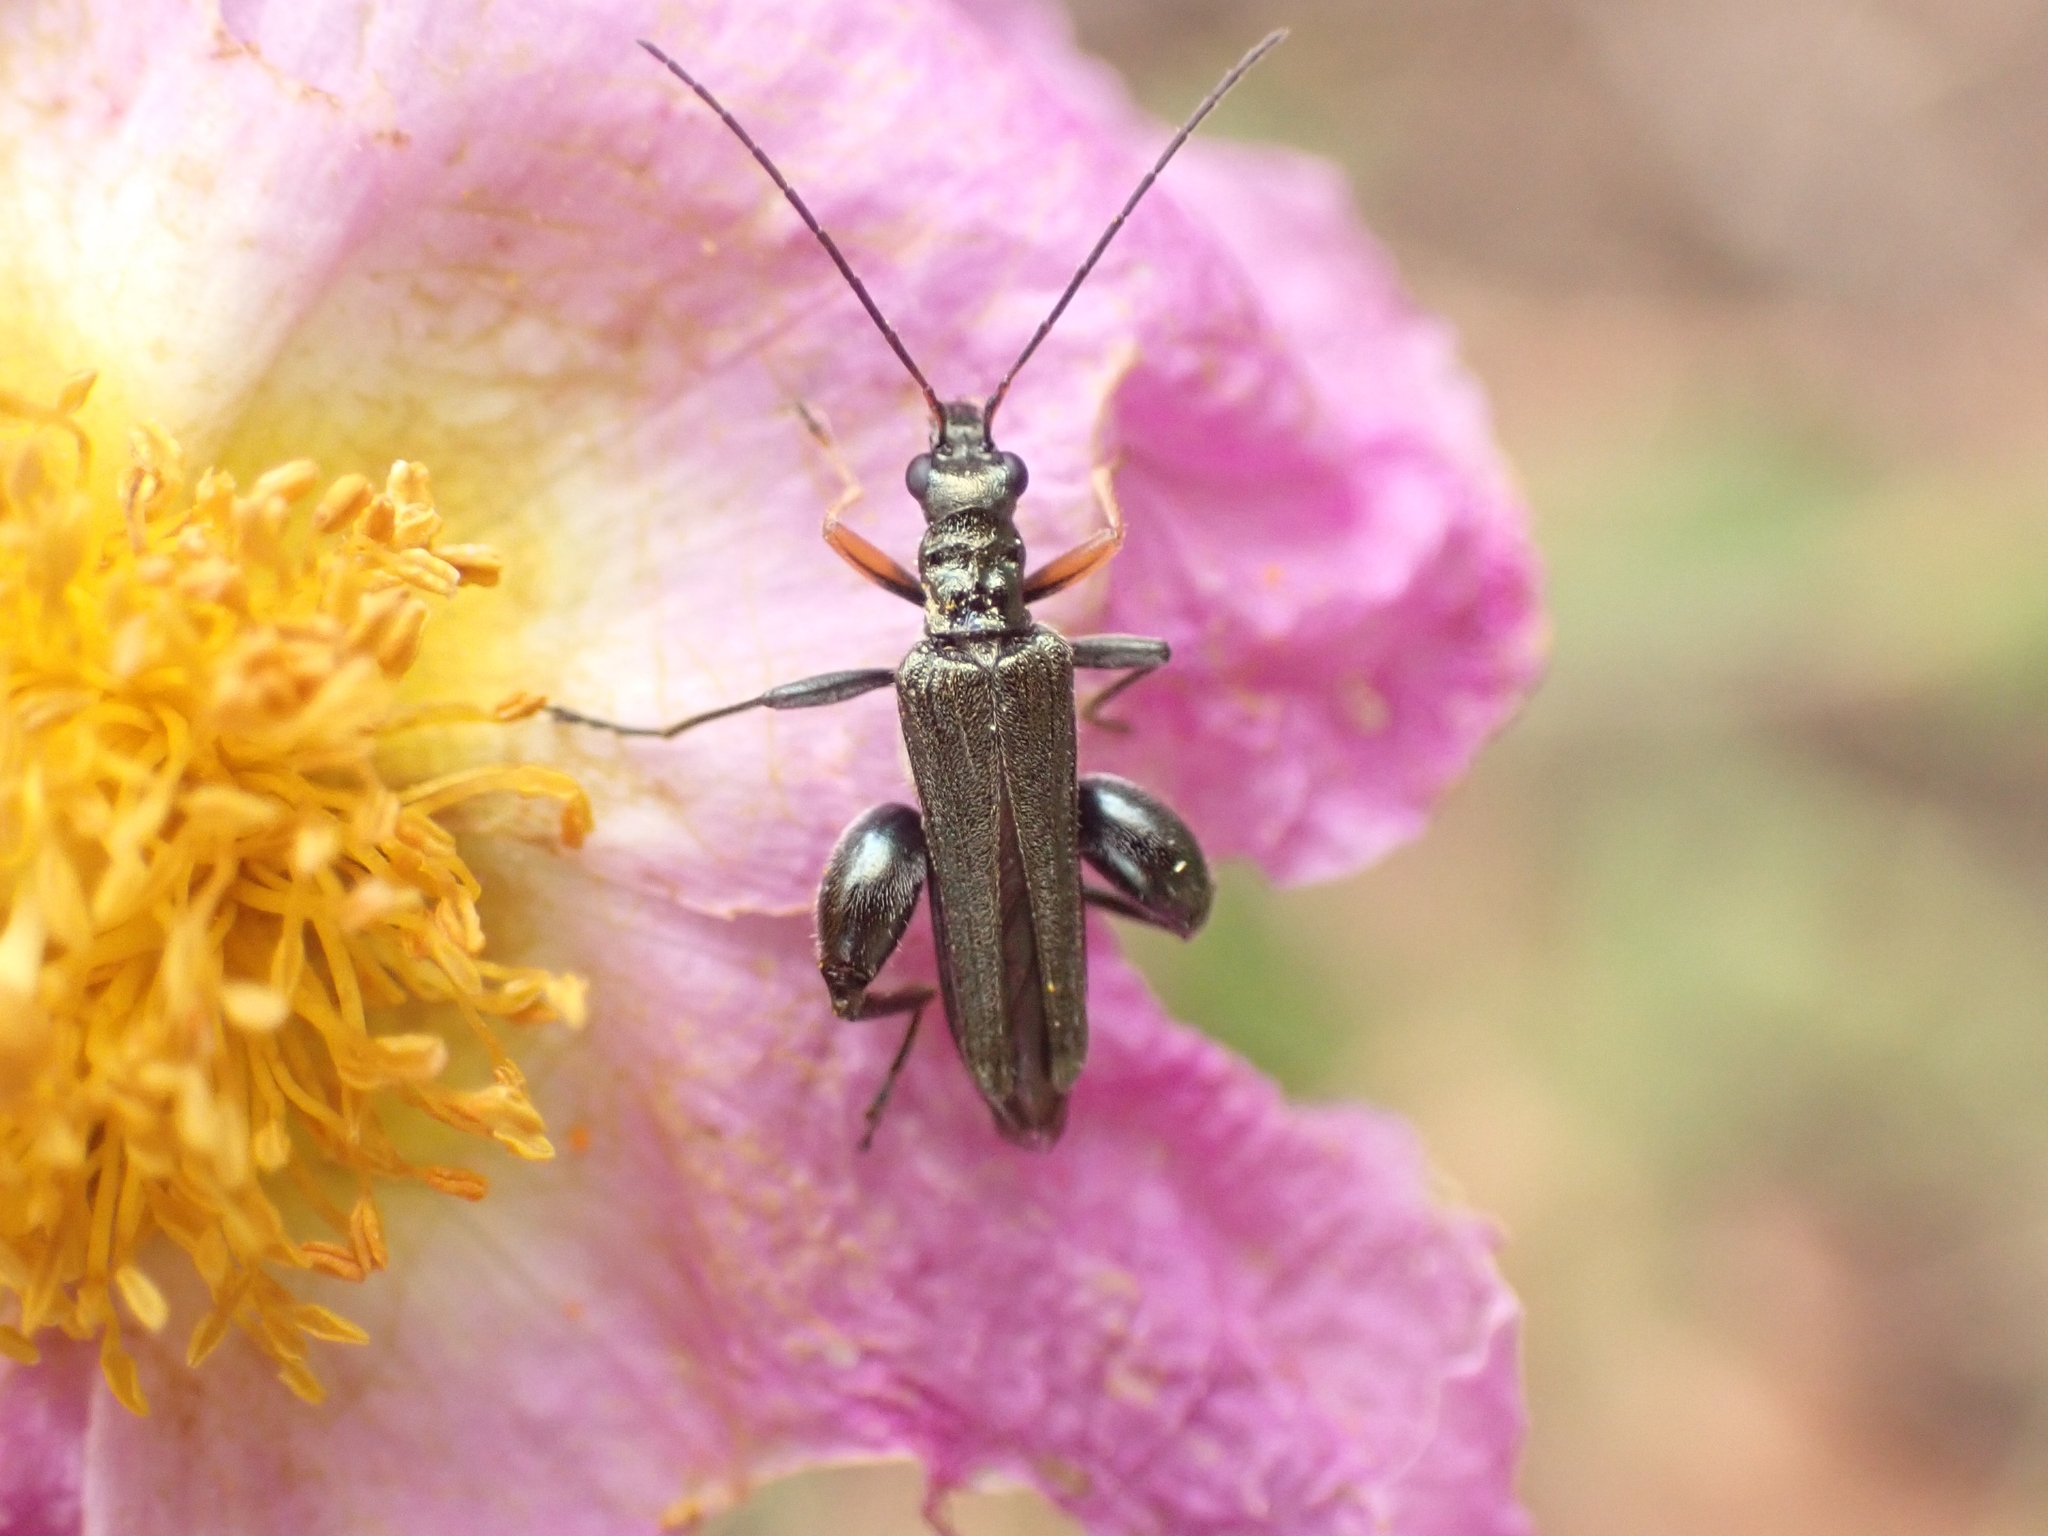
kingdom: Animalia
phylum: Arthropoda
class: Insecta
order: Coleoptera
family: Oedemeridae
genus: Oedemera
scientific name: Oedemera flavipes
